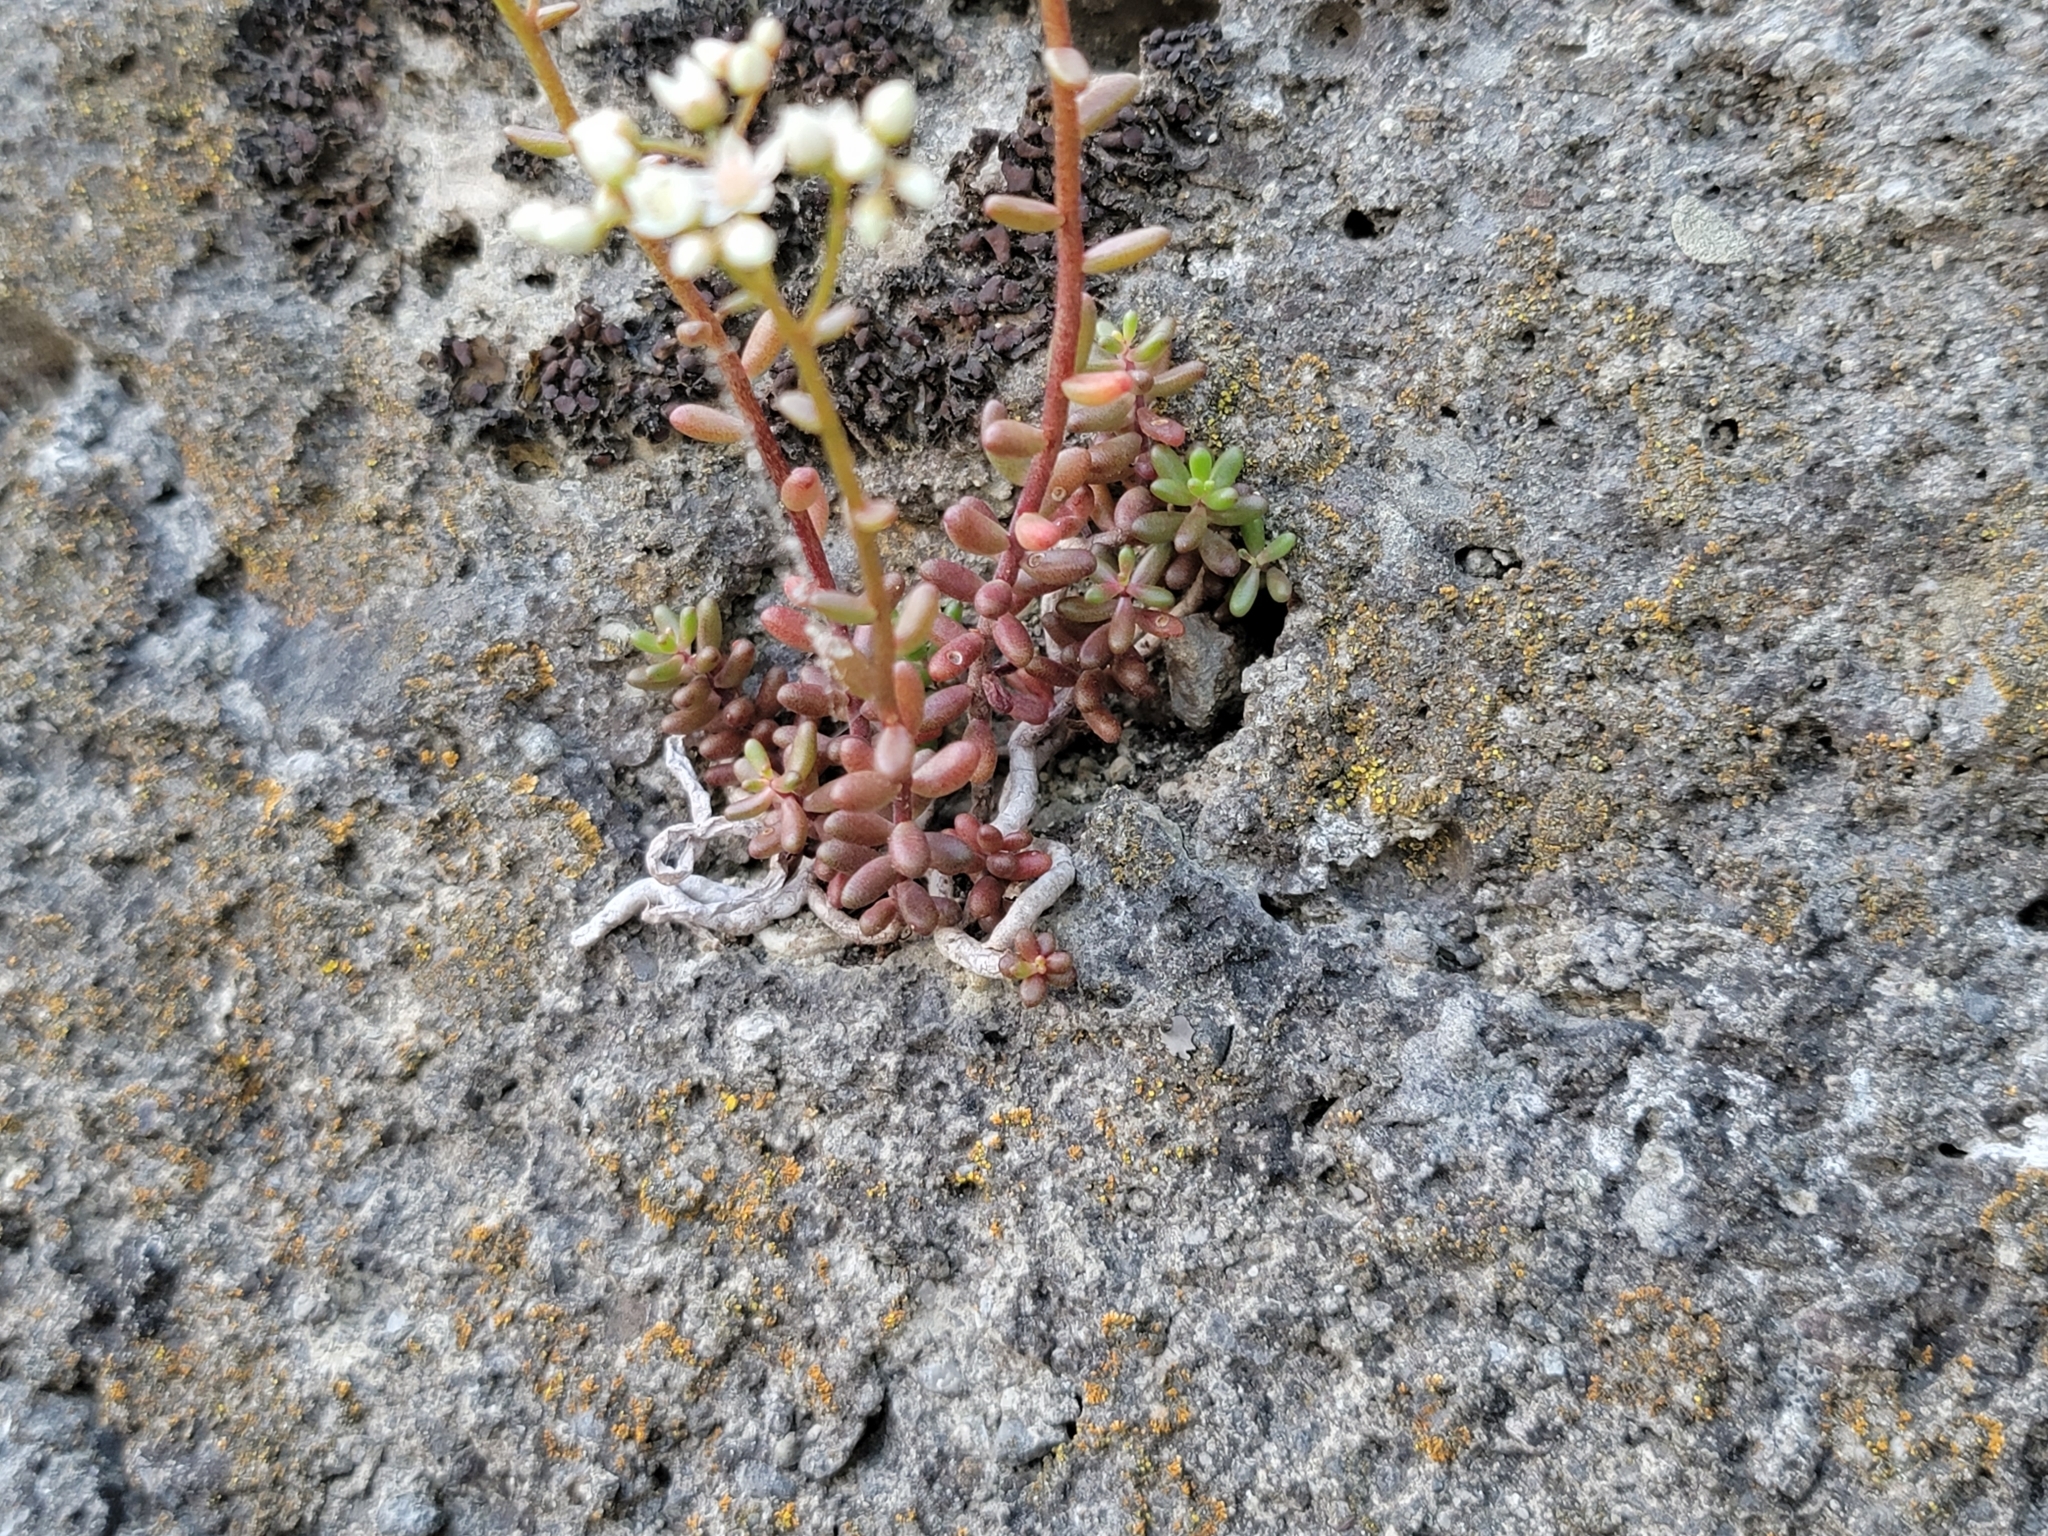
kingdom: Plantae
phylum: Tracheophyta
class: Magnoliopsida
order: Saxifragales
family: Crassulaceae
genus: Sedum
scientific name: Sedum album
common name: White stonecrop
